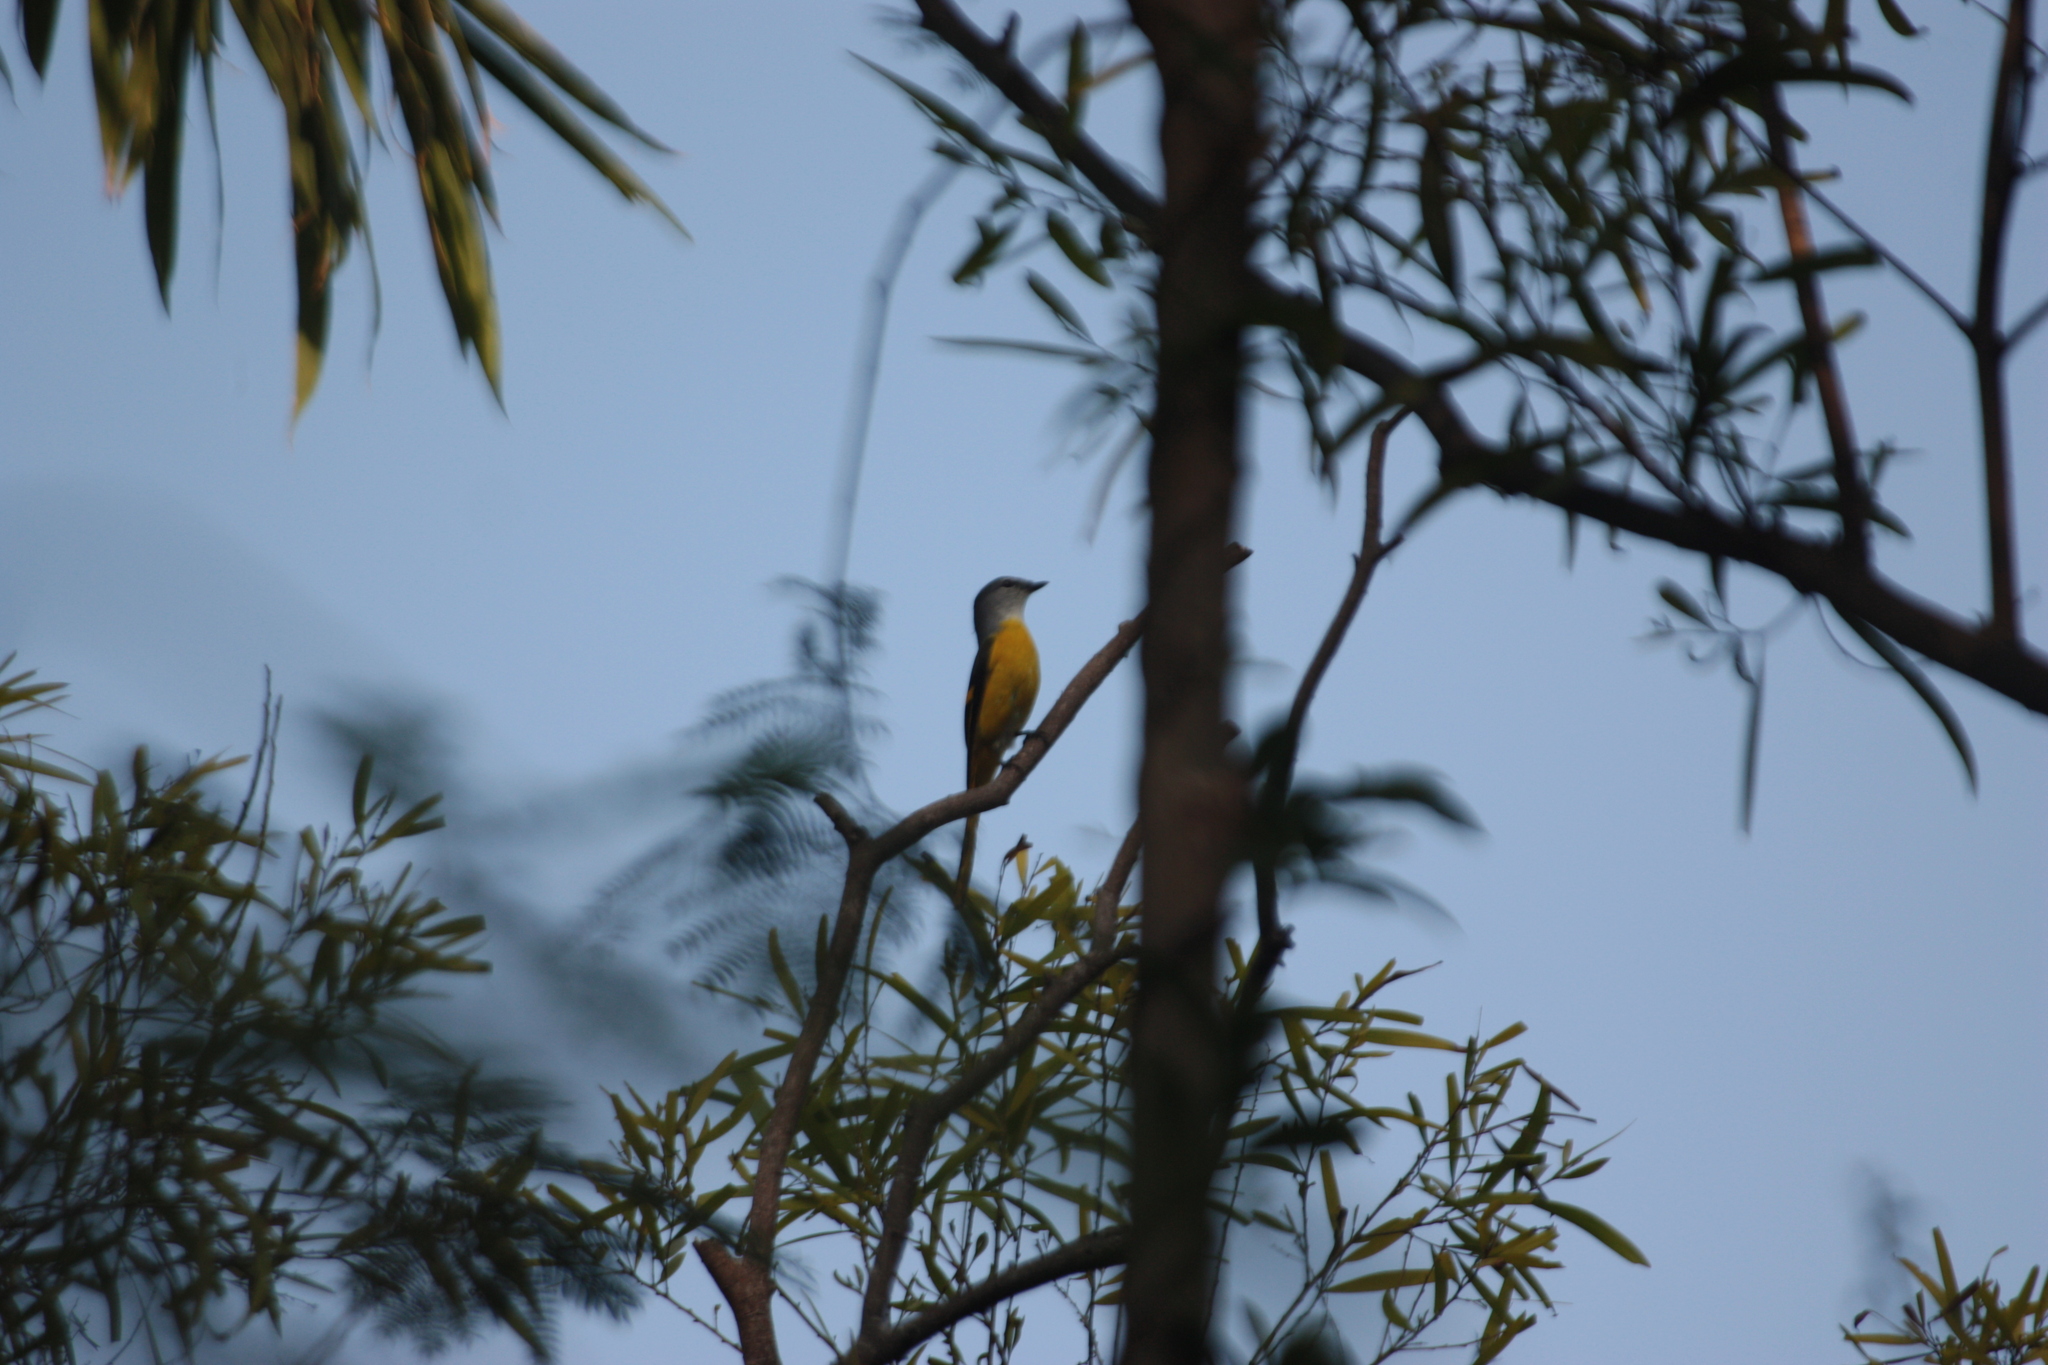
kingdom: Animalia
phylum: Chordata
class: Aves
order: Passeriformes
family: Campephagidae
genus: Pericrocotus
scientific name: Pericrocotus solaris
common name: Grey-chinned minivet
